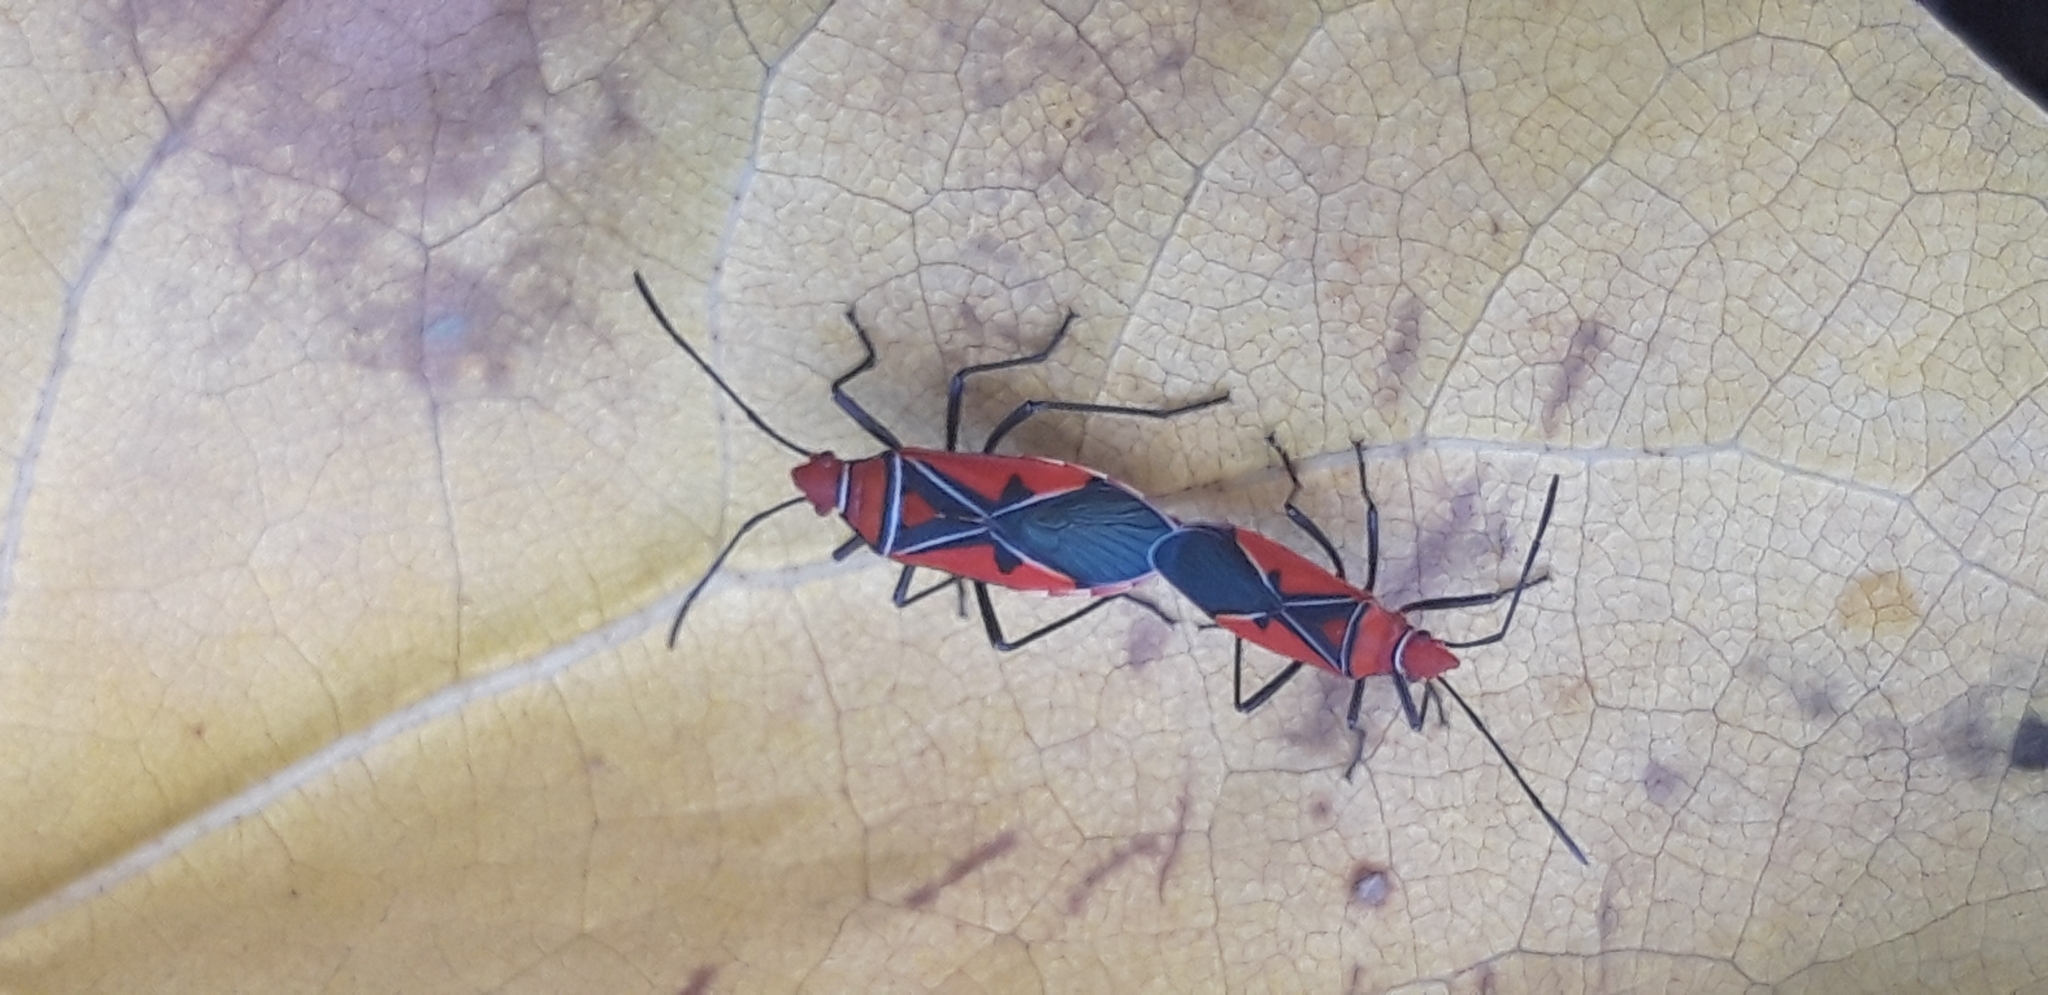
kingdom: Animalia
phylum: Arthropoda
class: Insecta
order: Hemiptera
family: Pyrrhocoridae
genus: Dysdercus
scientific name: Dysdercus andreae
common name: St. andrew's cotton stainer
